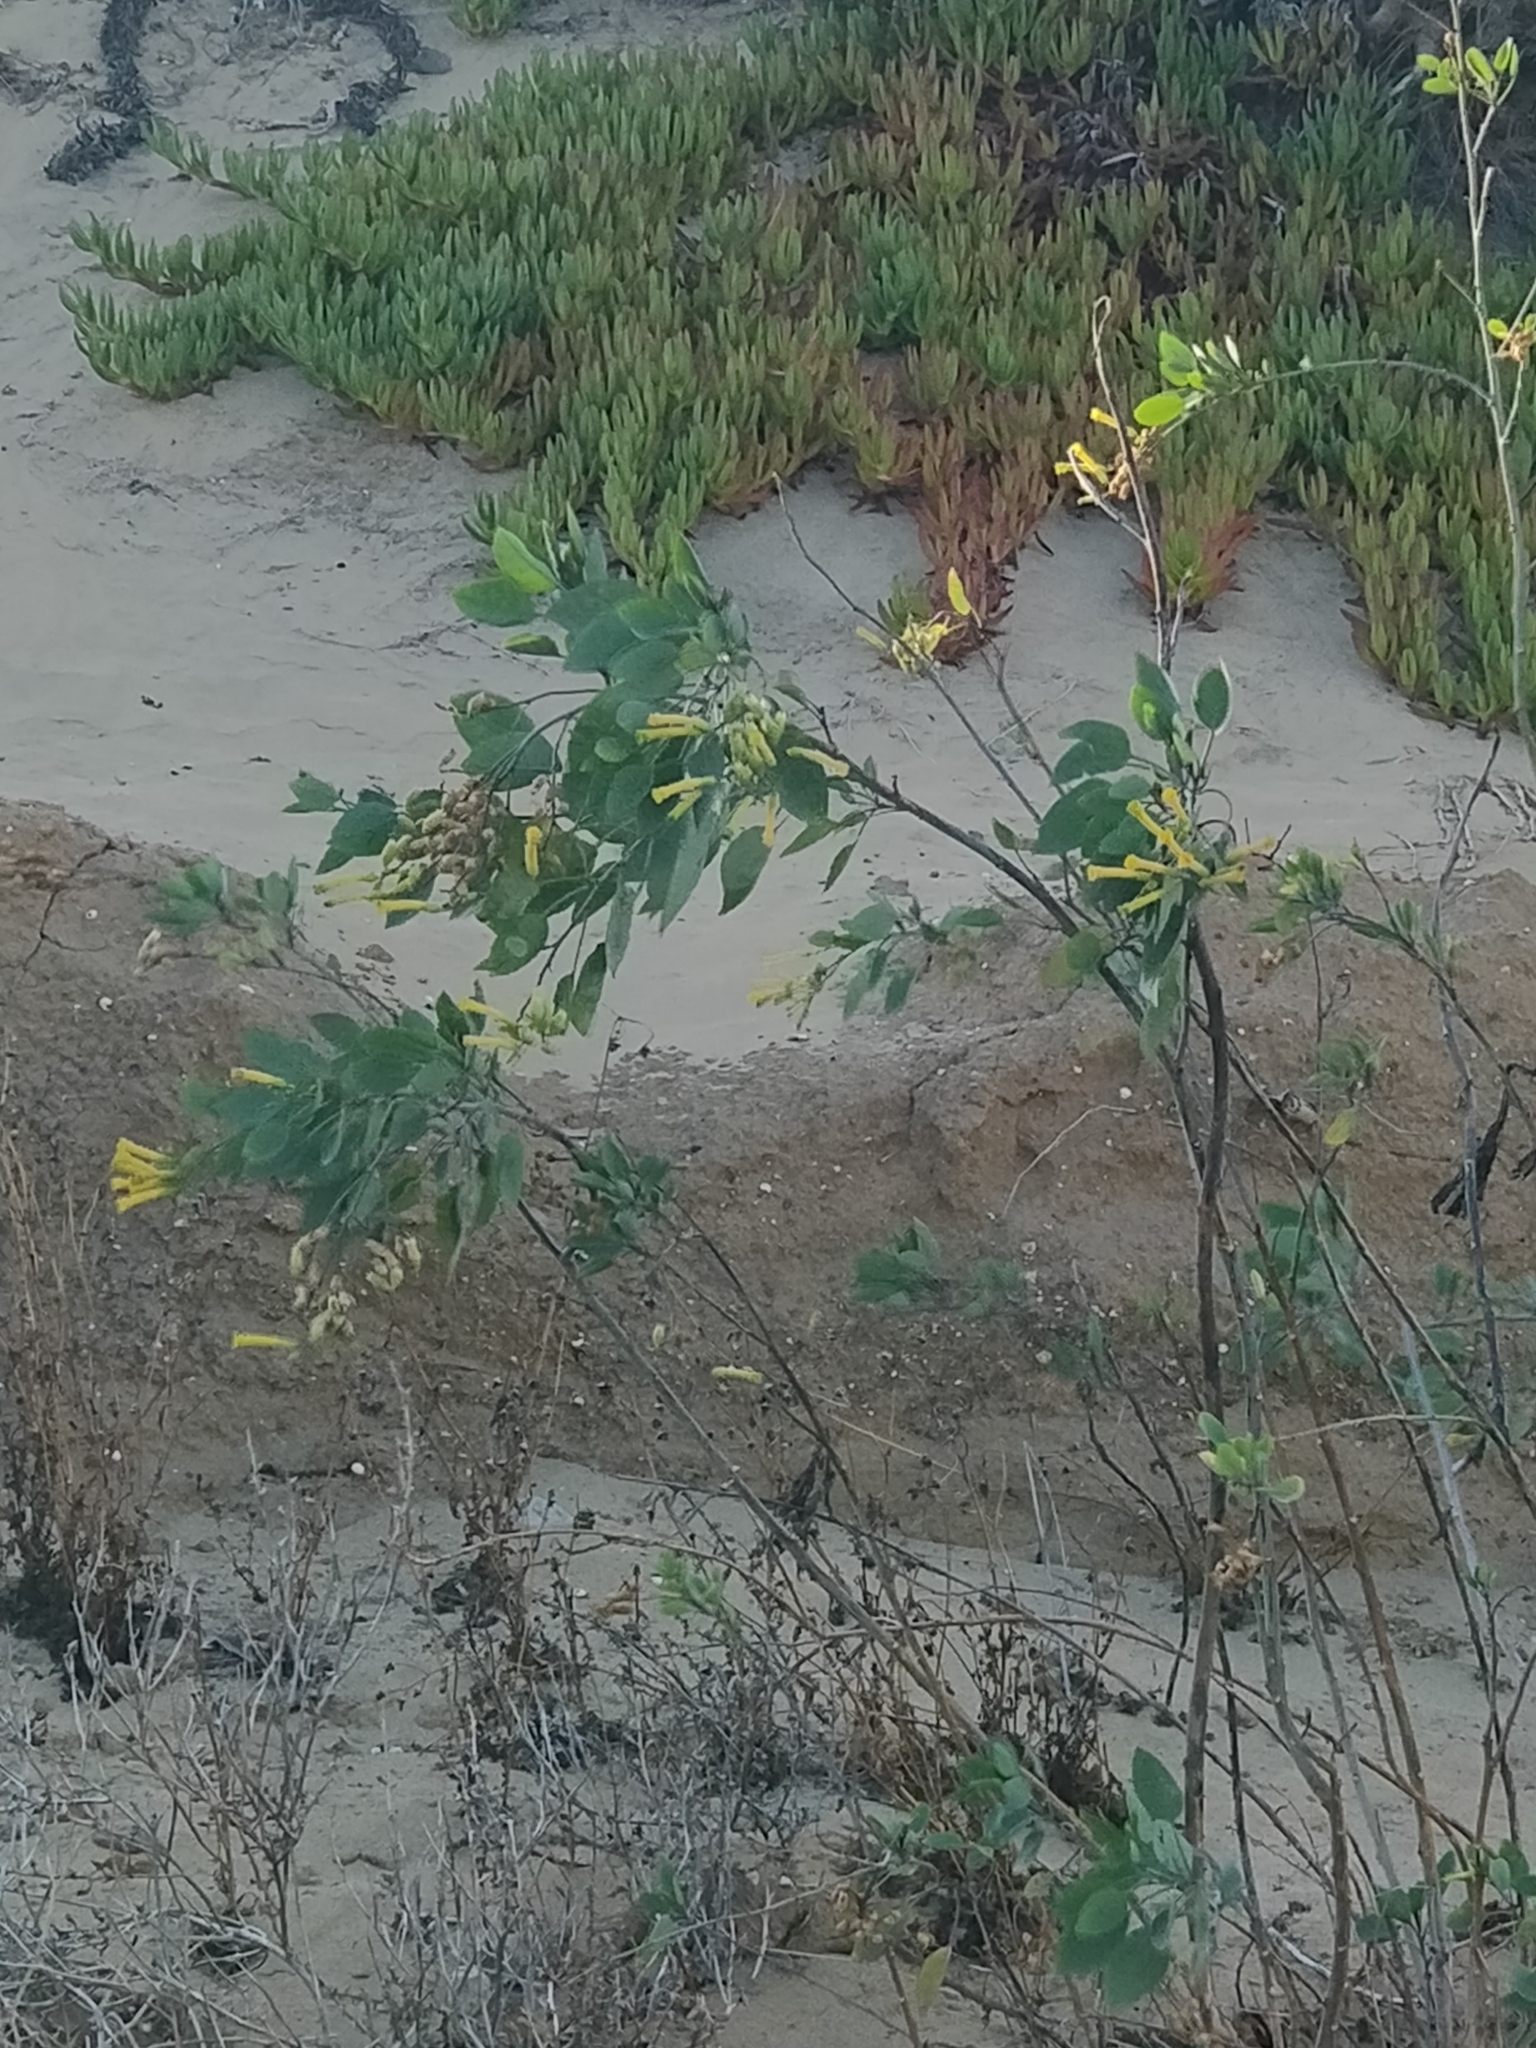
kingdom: Plantae
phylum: Tracheophyta
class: Magnoliopsida
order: Solanales
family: Solanaceae
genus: Nicotiana
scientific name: Nicotiana glauca
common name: Tree tobacco
